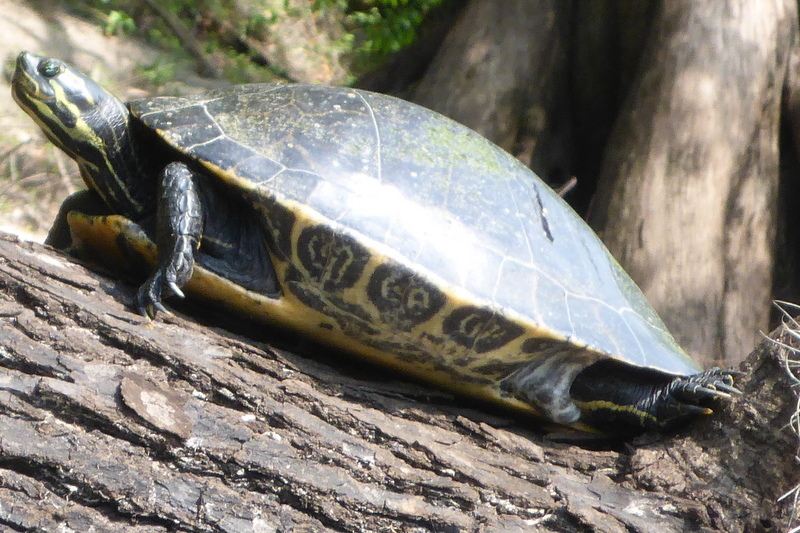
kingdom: Animalia
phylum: Chordata
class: Testudines
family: Emydidae
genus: Pseudemys
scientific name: Pseudemys concinna
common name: Eastern river cooter
